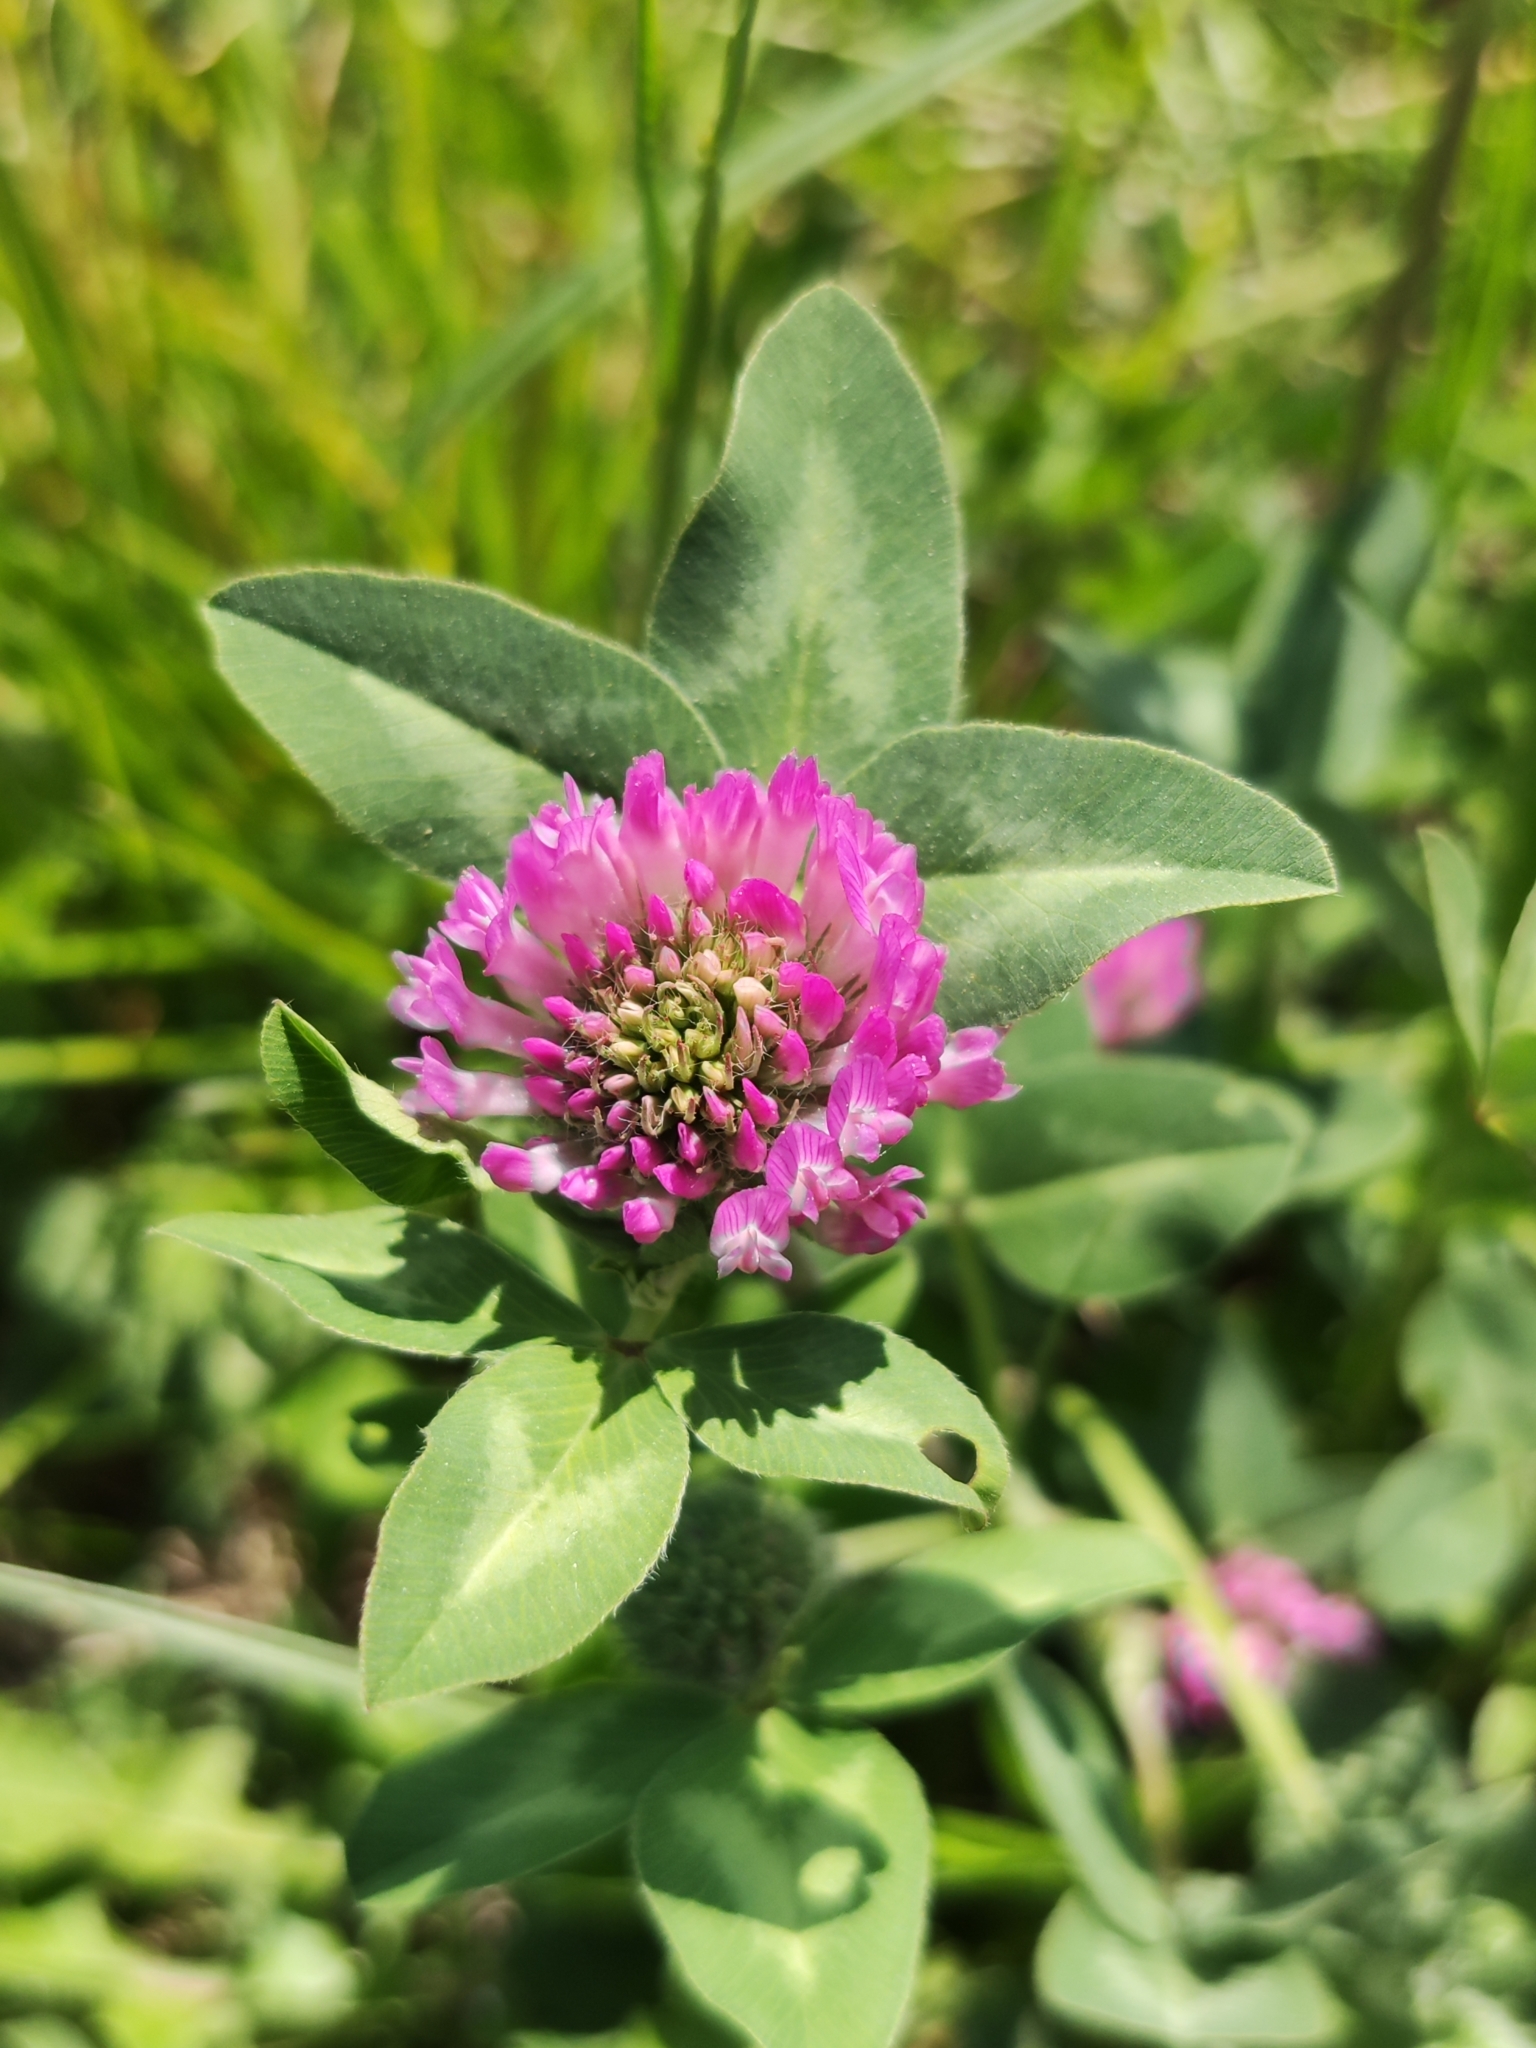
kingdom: Plantae
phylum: Tracheophyta
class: Magnoliopsida
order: Fabales
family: Fabaceae
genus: Trifolium
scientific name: Trifolium pratense
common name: Red clover
